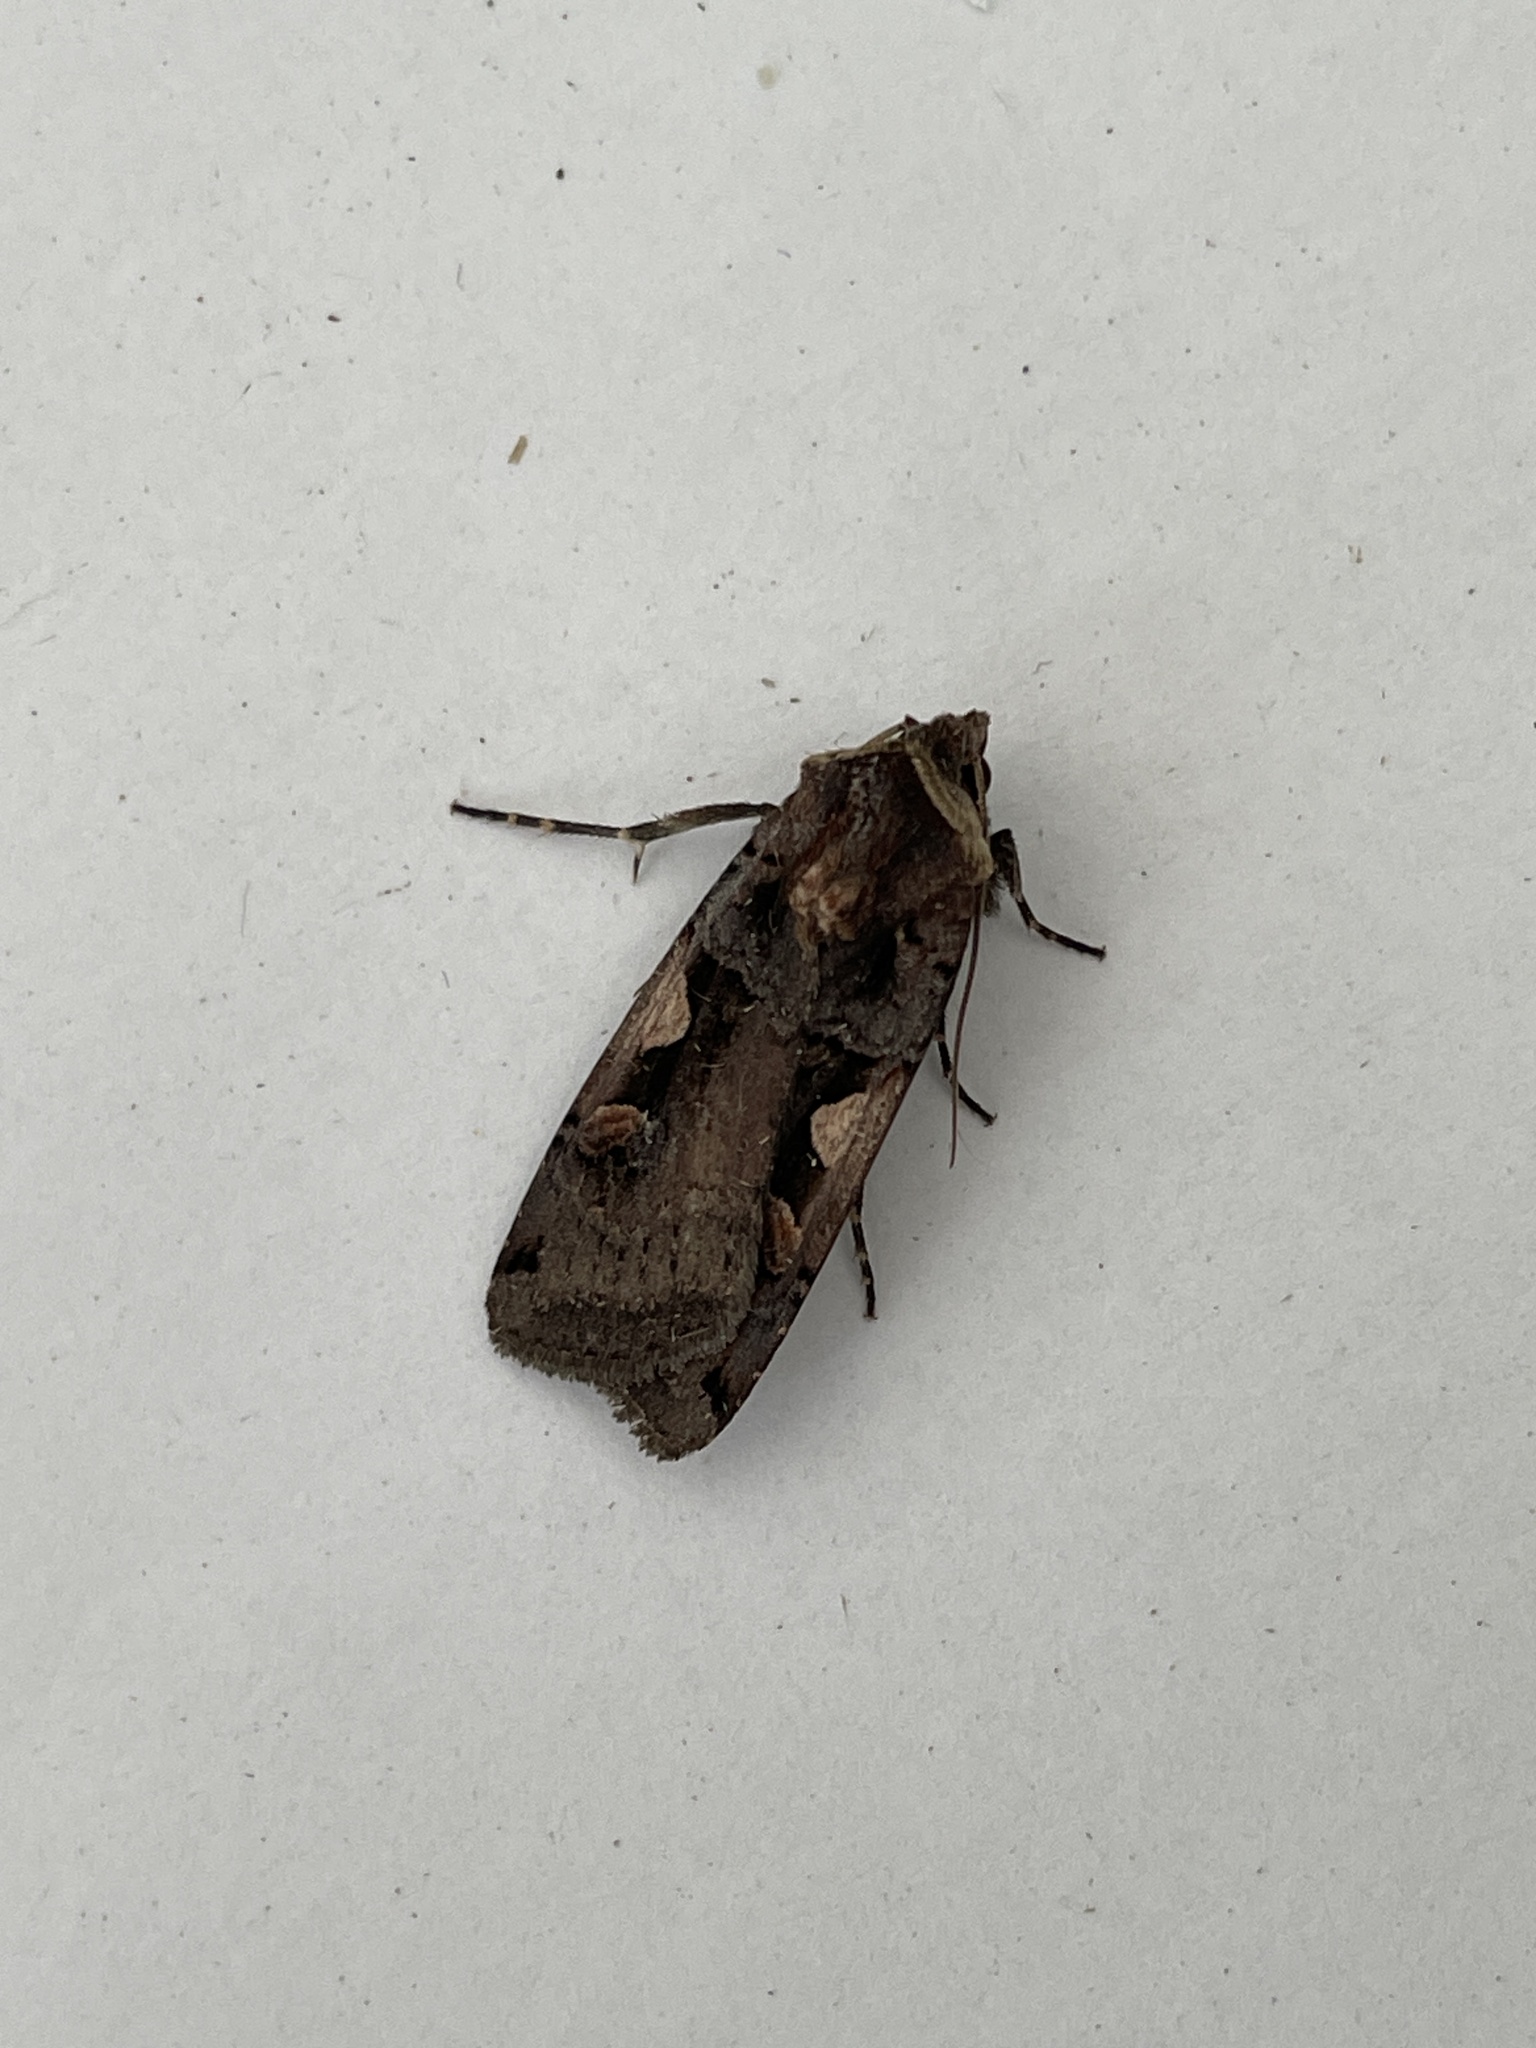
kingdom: Animalia
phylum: Arthropoda
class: Insecta
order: Lepidoptera
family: Noctuidae
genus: Xestia
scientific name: Xestia c-nigrum
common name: Setaceous hebrew character
